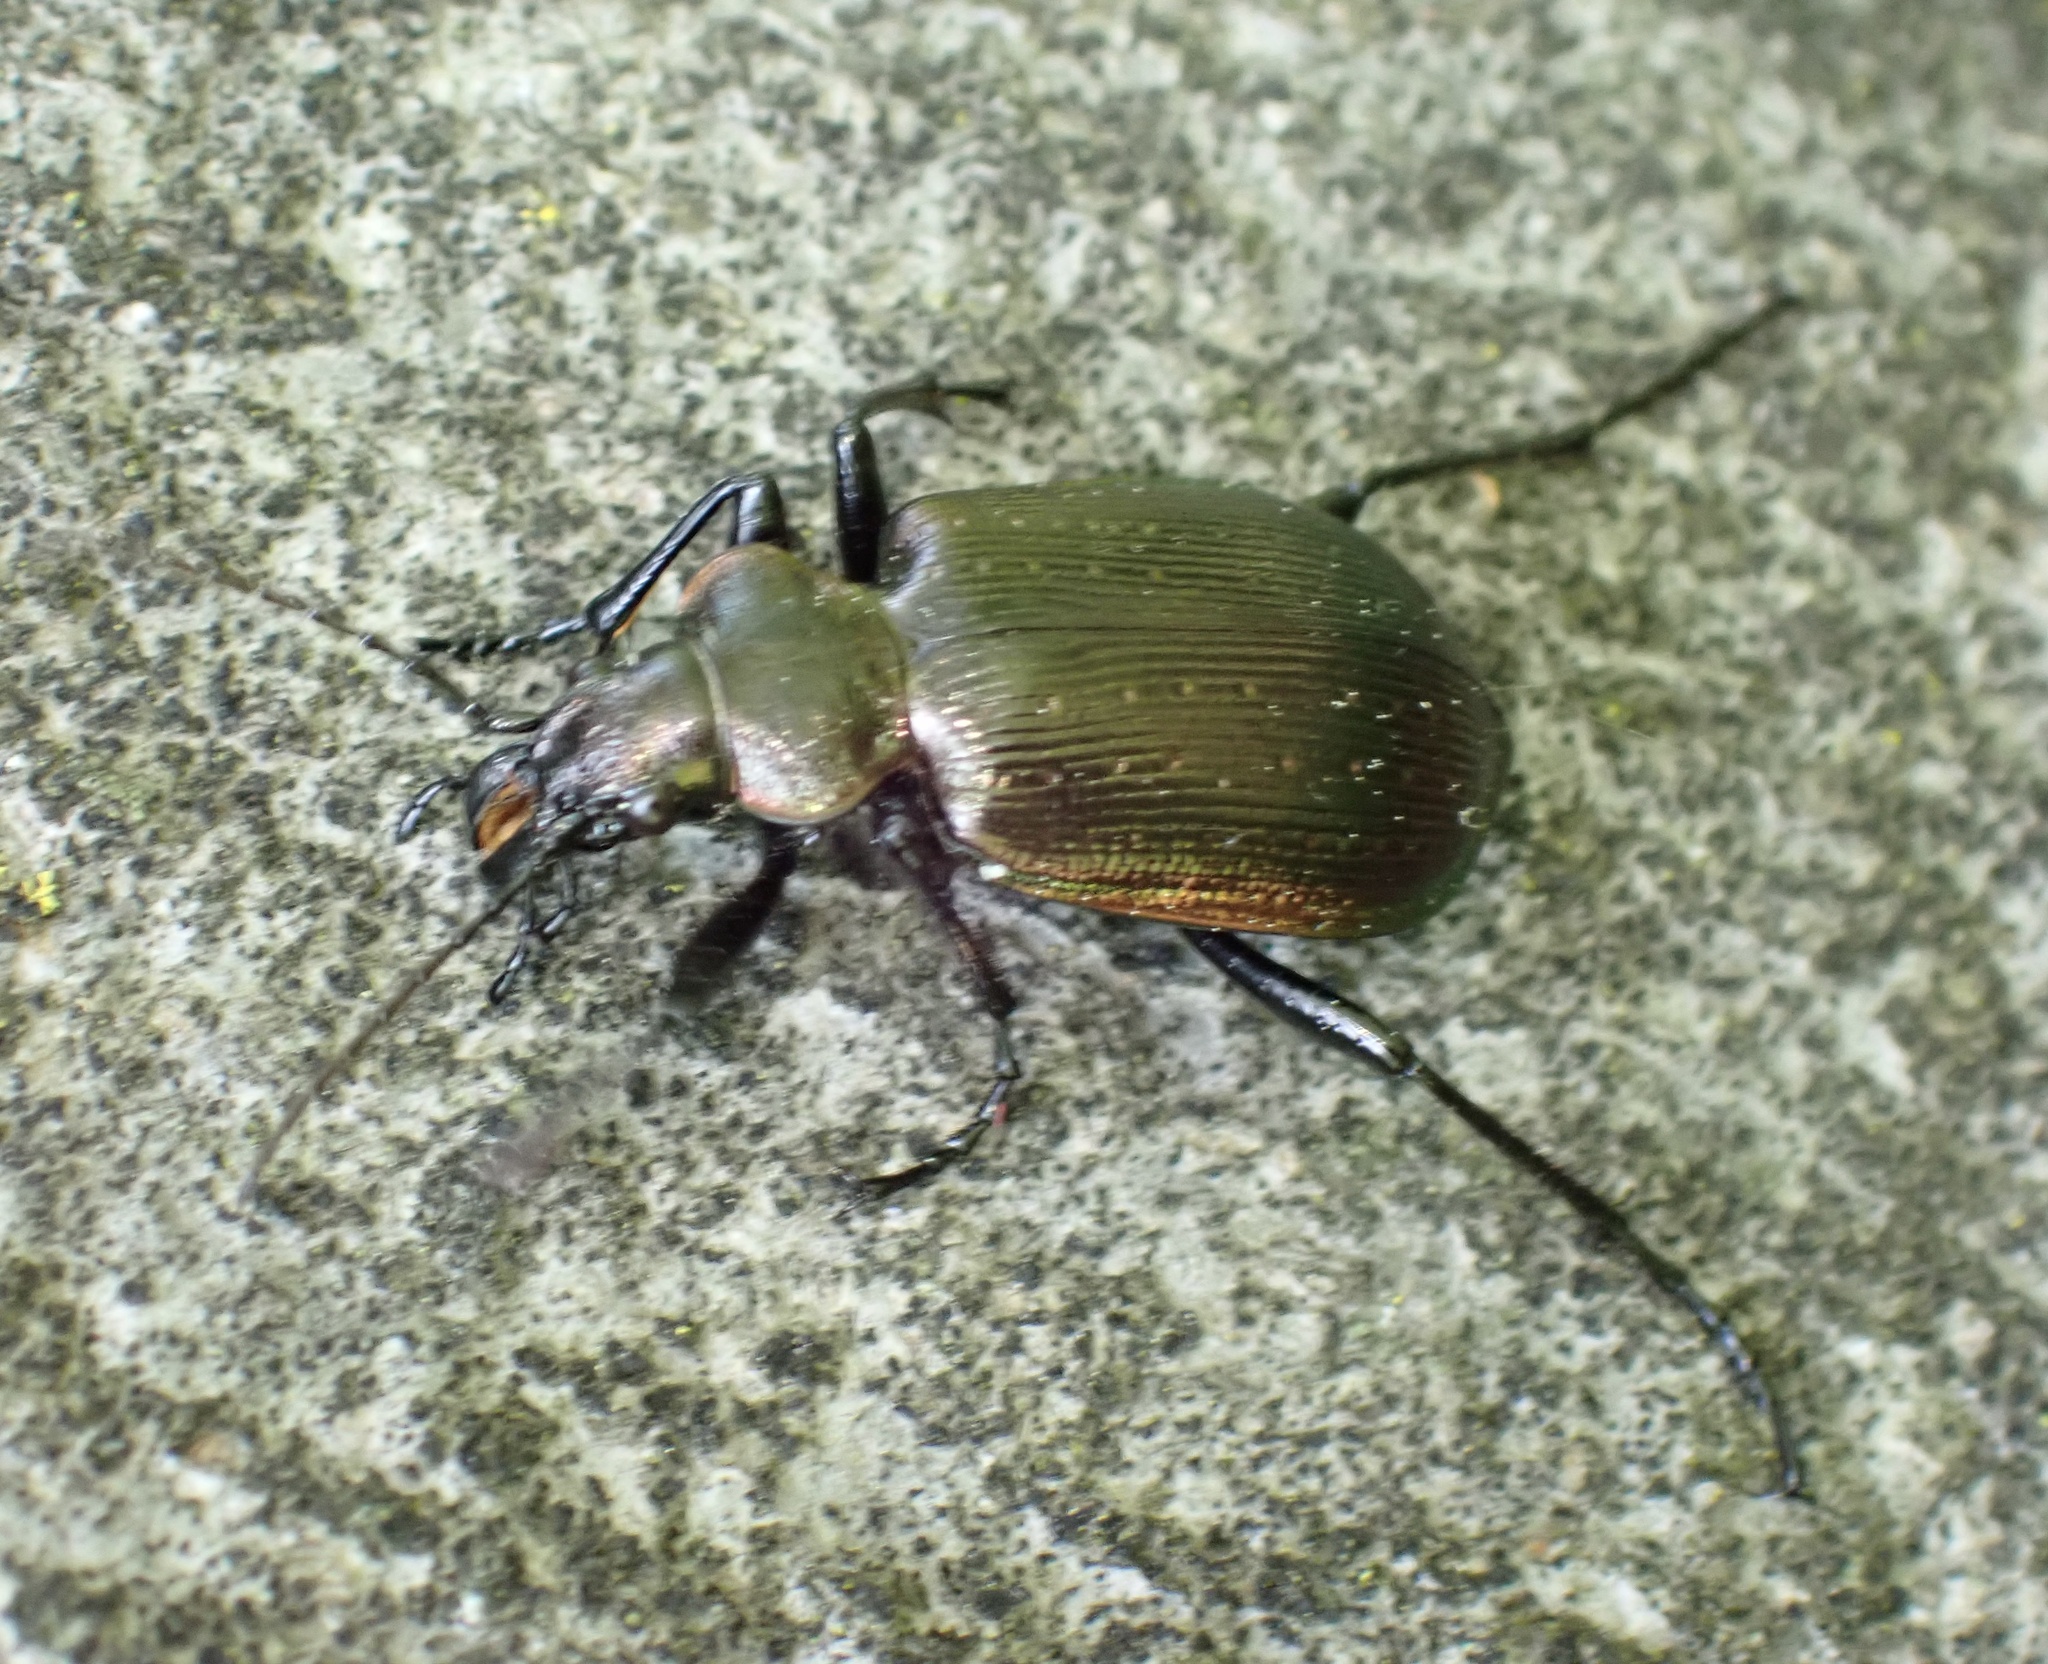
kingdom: Animalia
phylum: Arthropoda
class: Insecta
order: Coleoptera
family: Carabidae
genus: Calosoma
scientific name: Calosoma inquisitor
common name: Caterpillar-hunter
